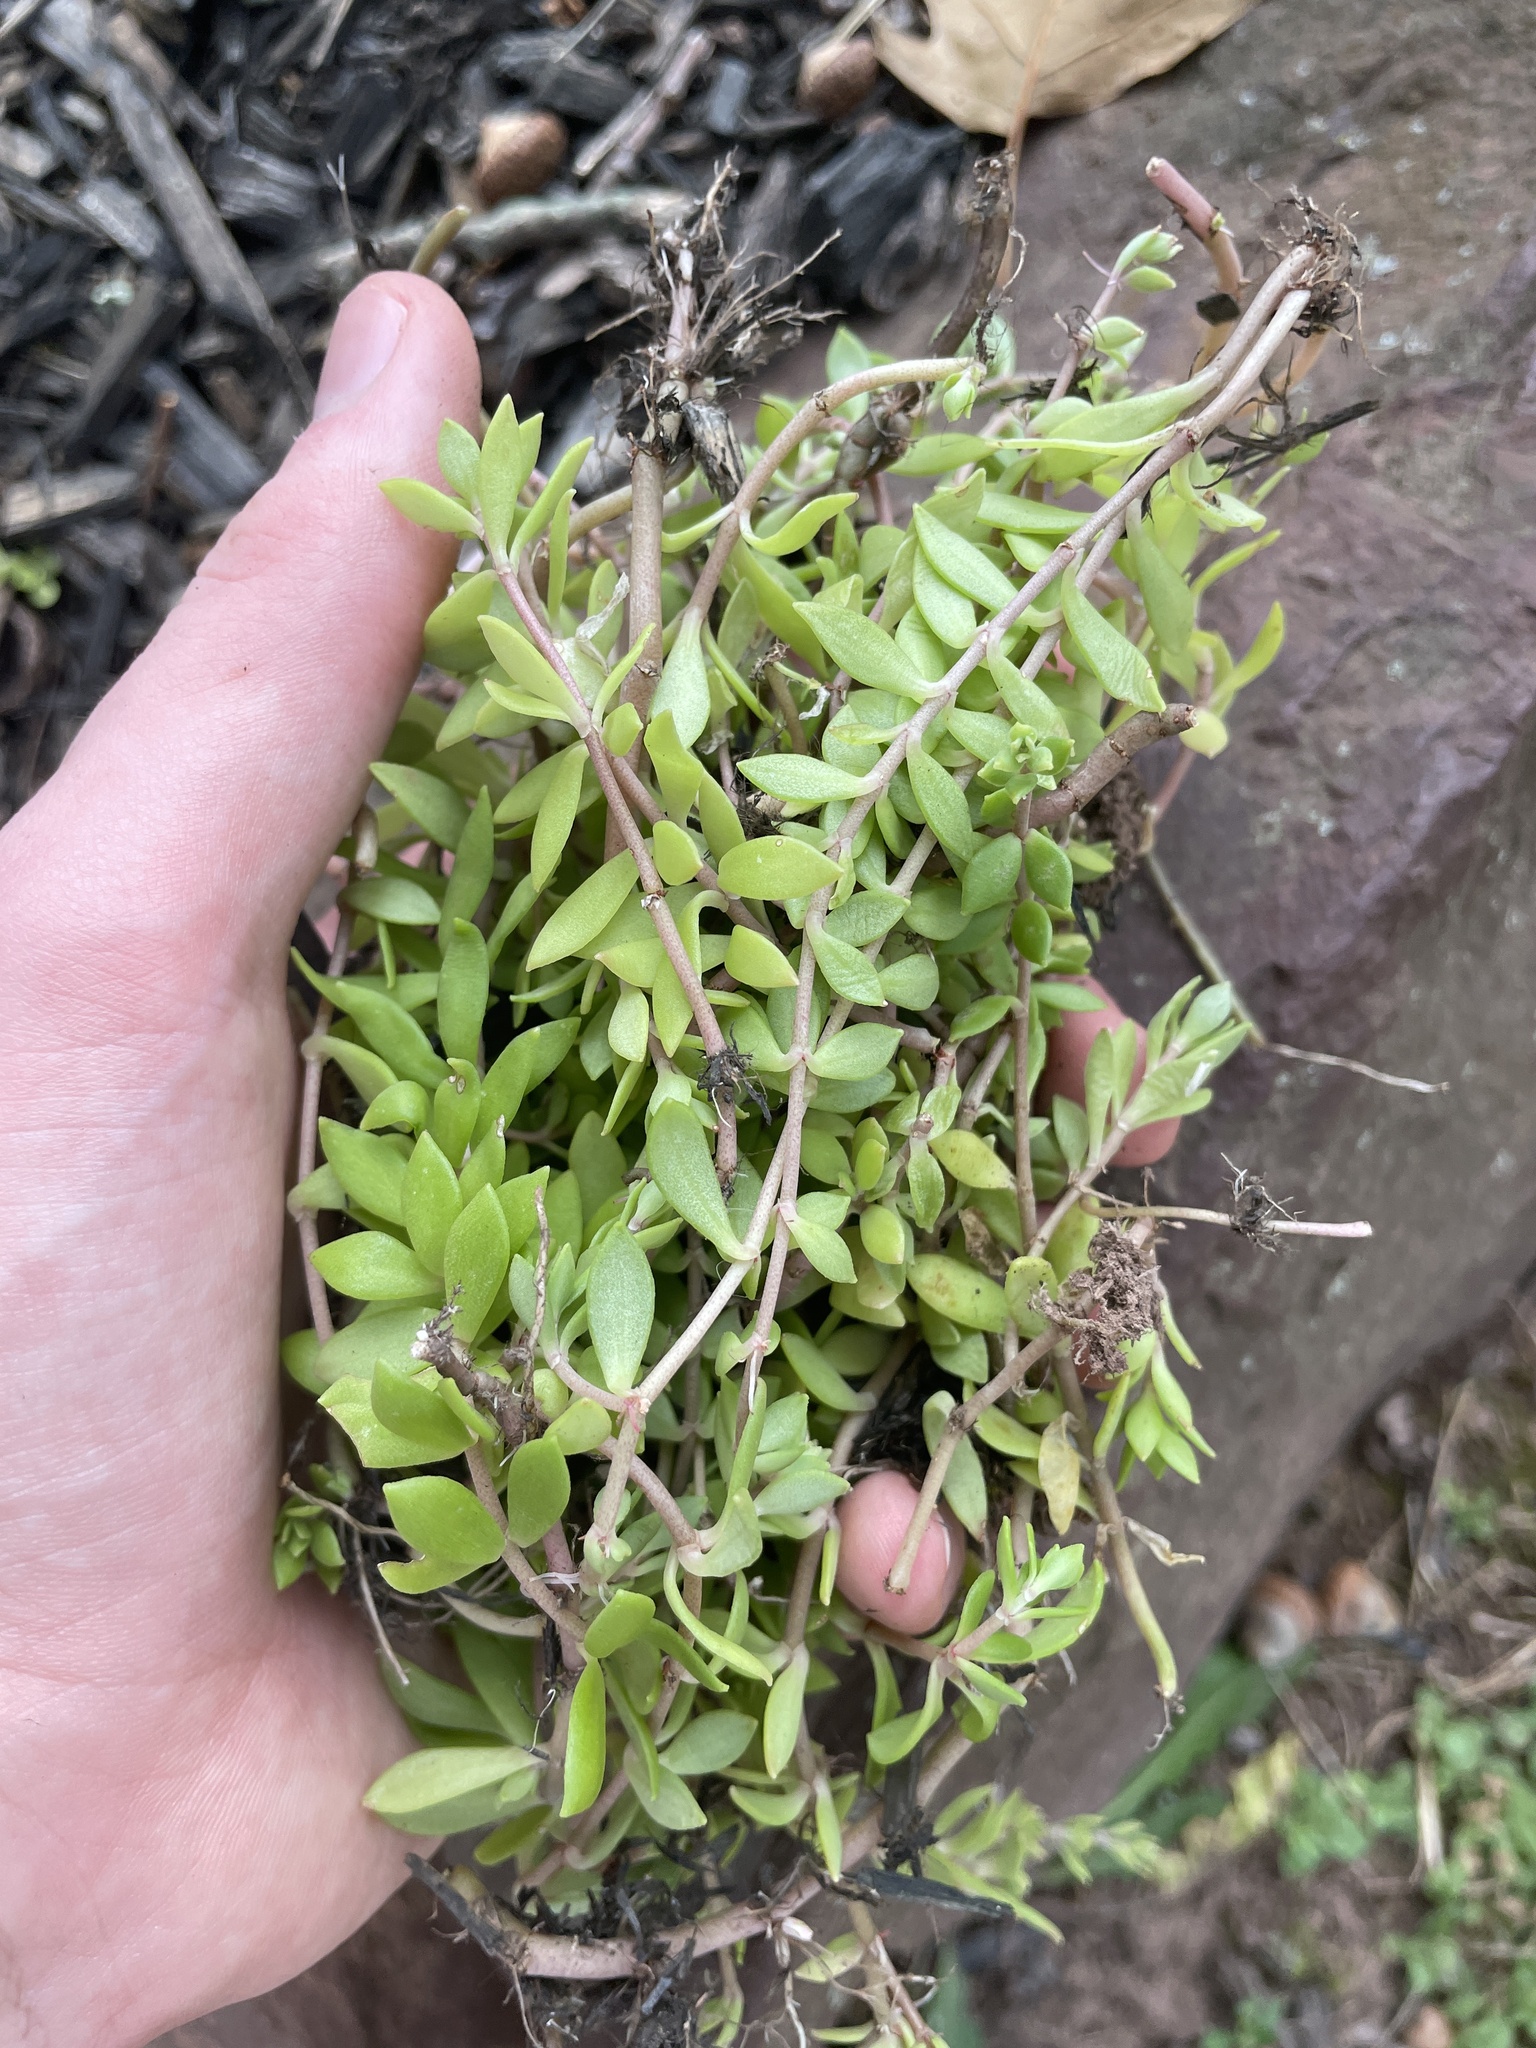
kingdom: Plantae
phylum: Tracheophyta
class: Magnoliopsida
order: Saxifragales
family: Crassulaceae
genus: Sedum
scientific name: Sedum sarmentosum
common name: Stringy stonecrop
